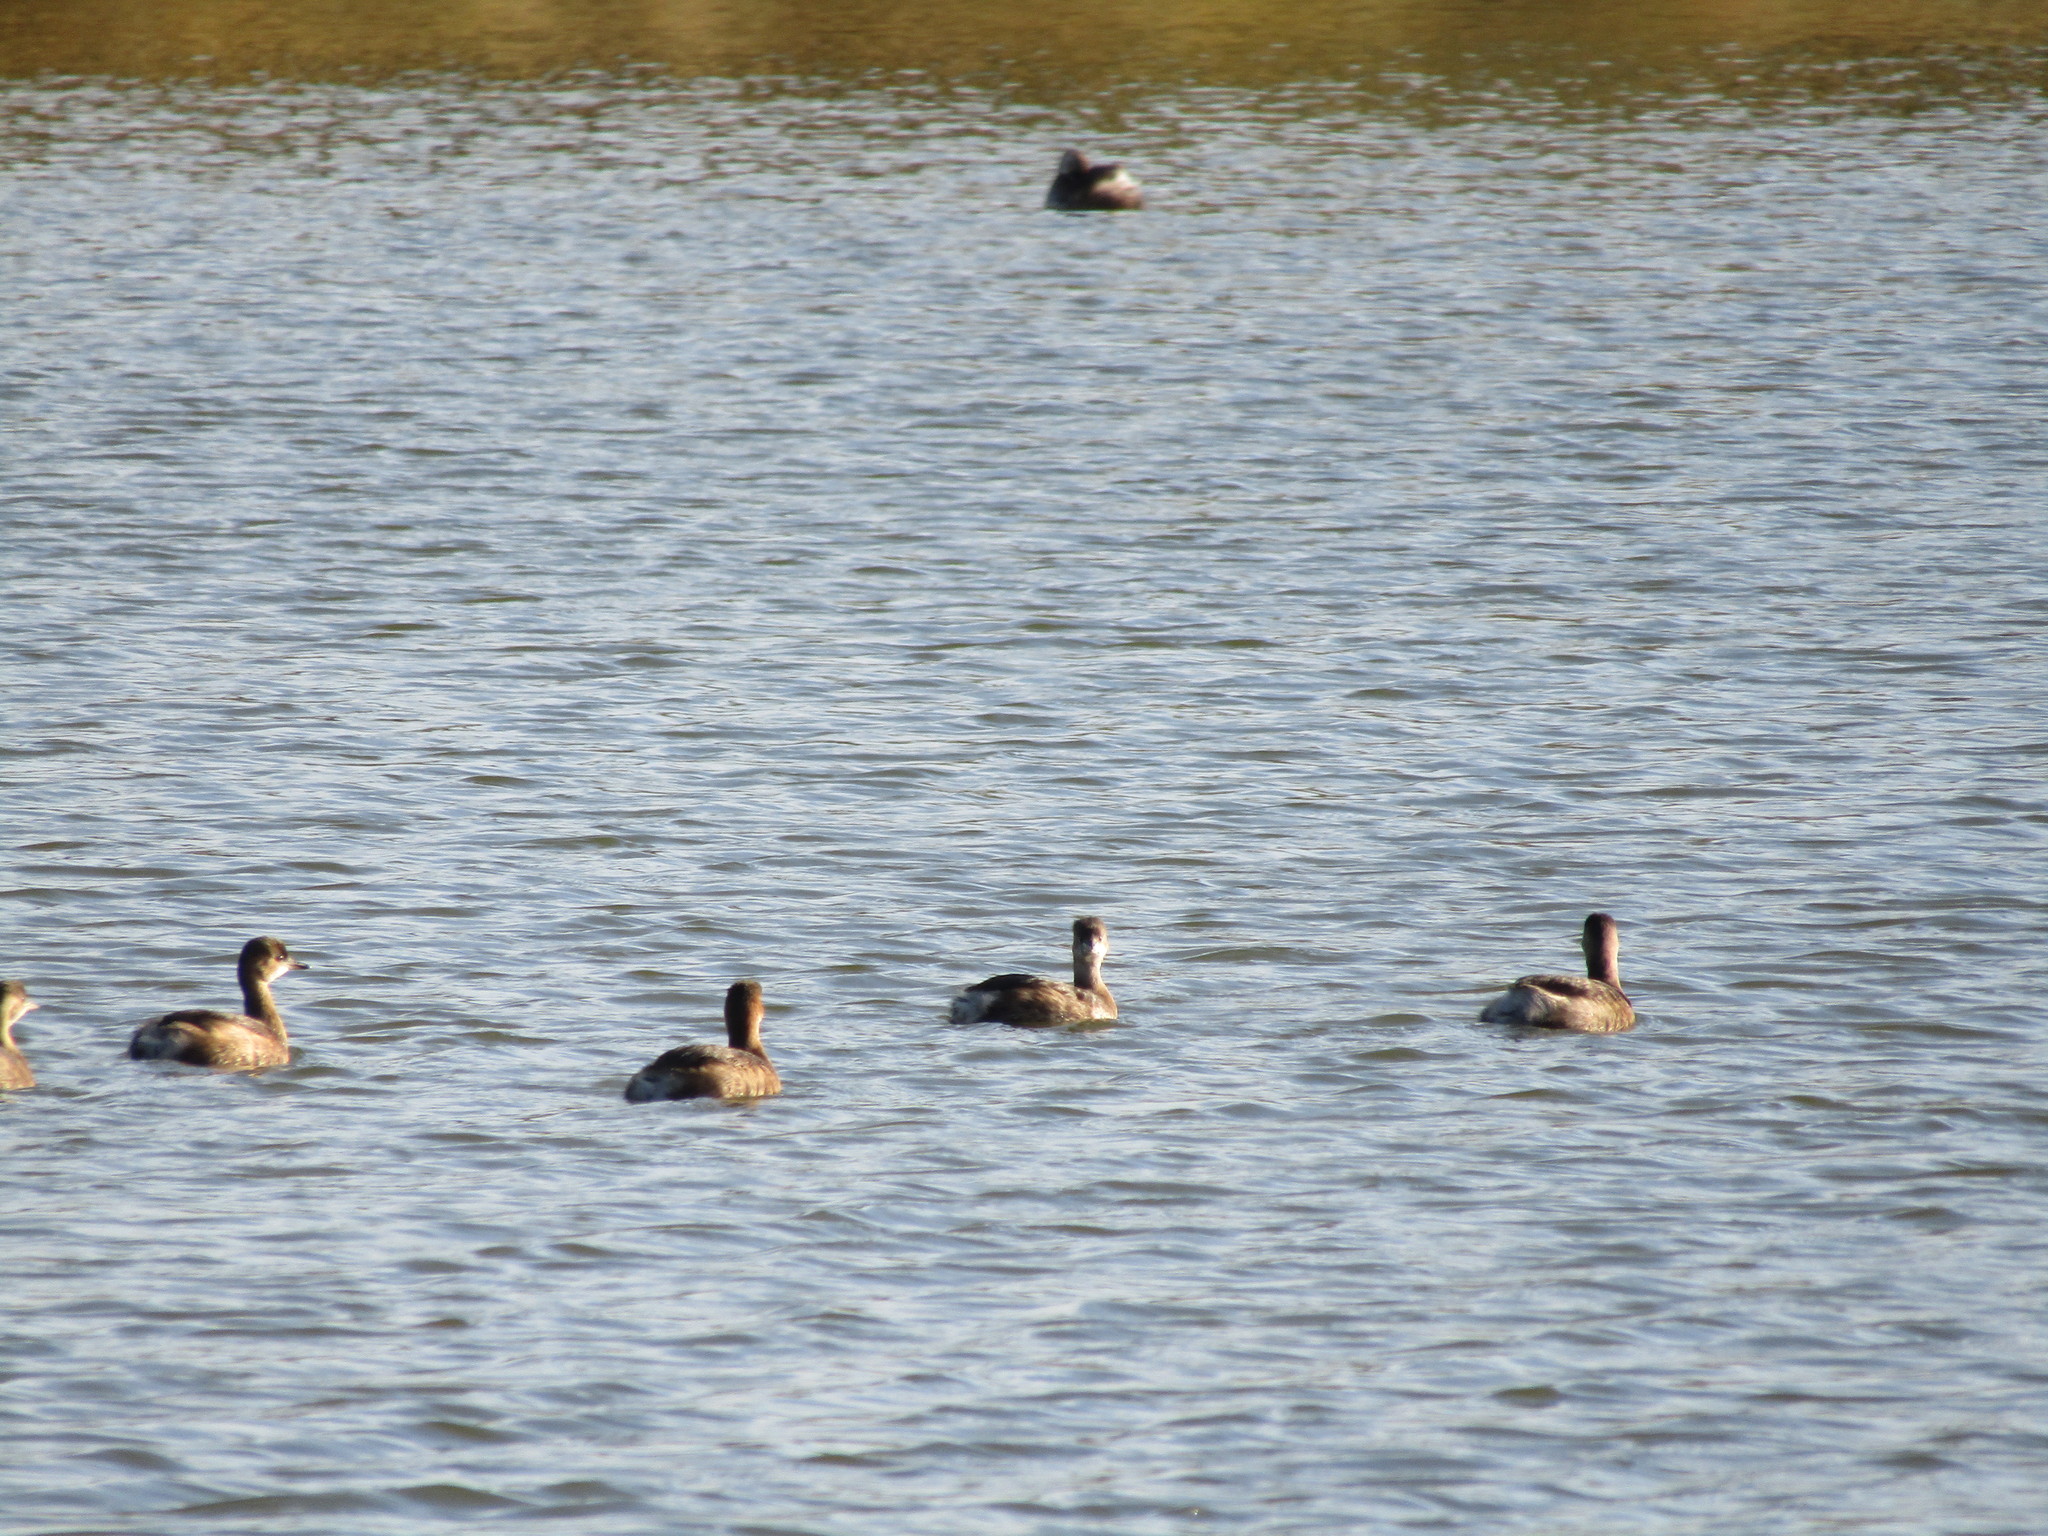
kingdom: Animalia
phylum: Chordata
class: Aves
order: Podicipediformes
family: Podicipedidae
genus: Tachybaptus
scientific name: Tachybaptus ruficollis
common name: Little grebe
